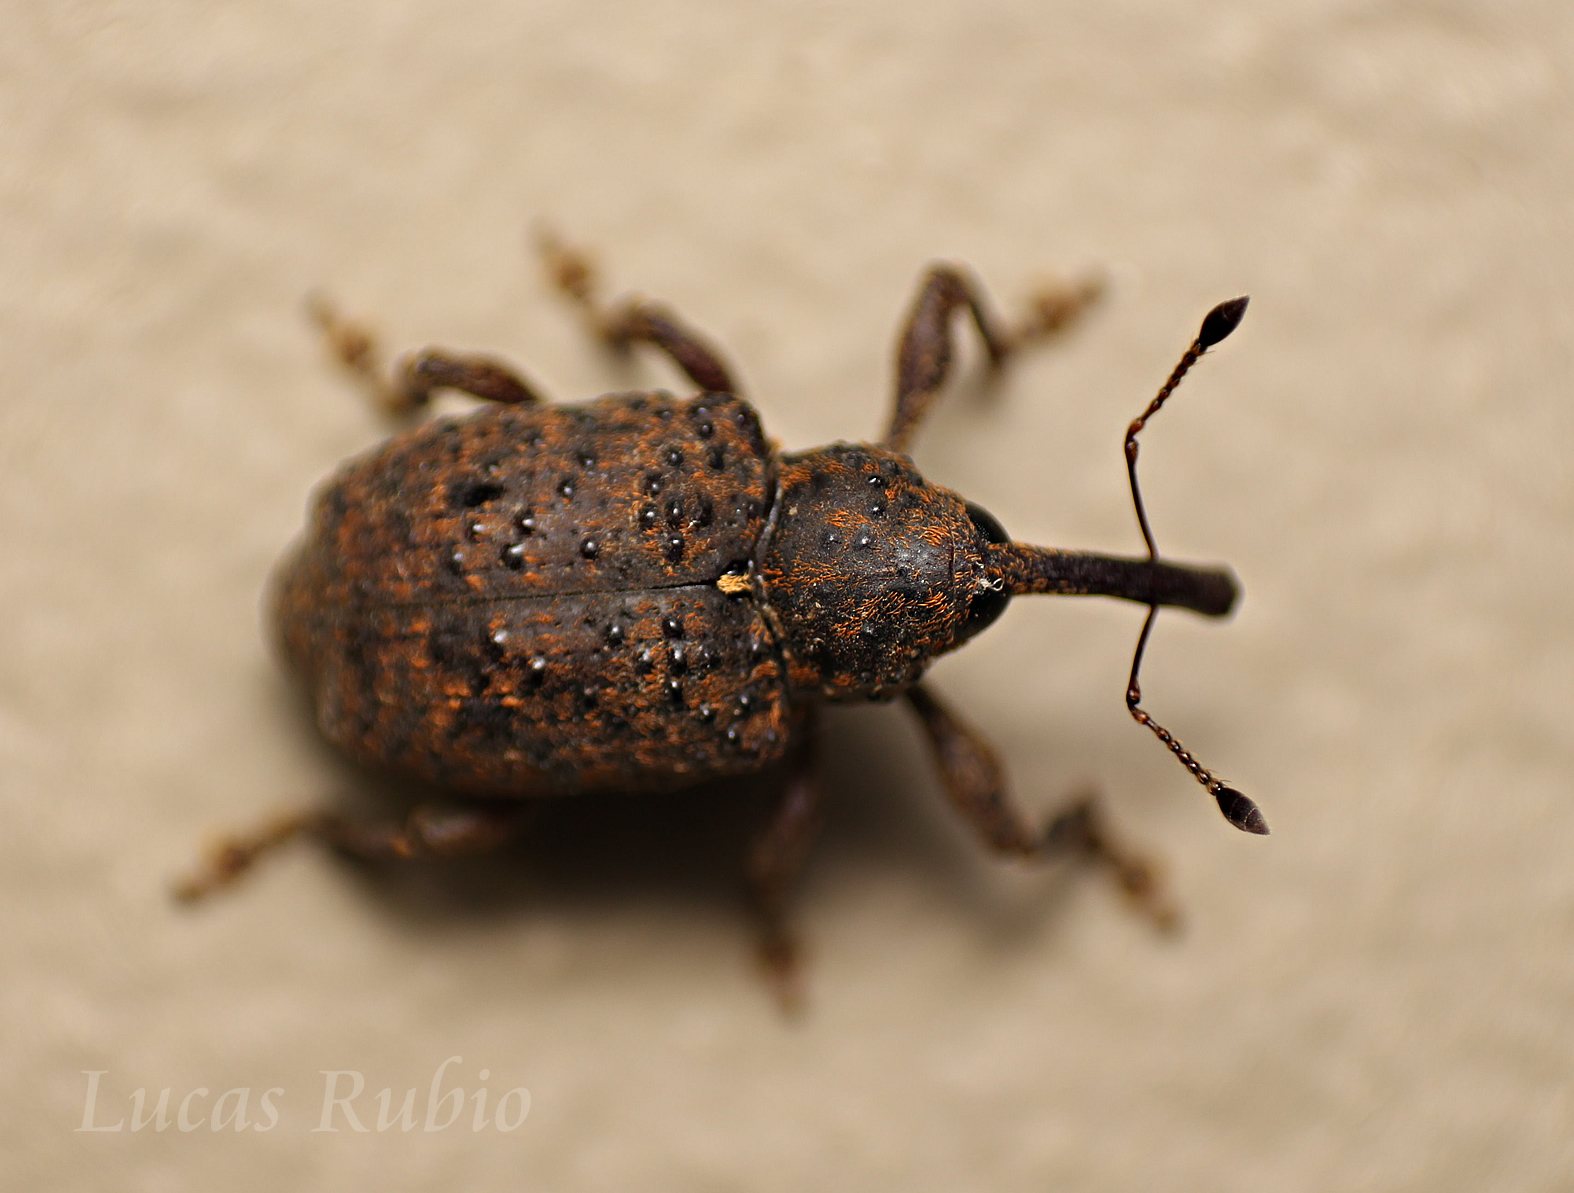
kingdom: Animalia
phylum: Arthropoda
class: Insecta
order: Coleoptera
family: Curculionidae
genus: Heilipus
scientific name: Heilipus dorsosulcatus
